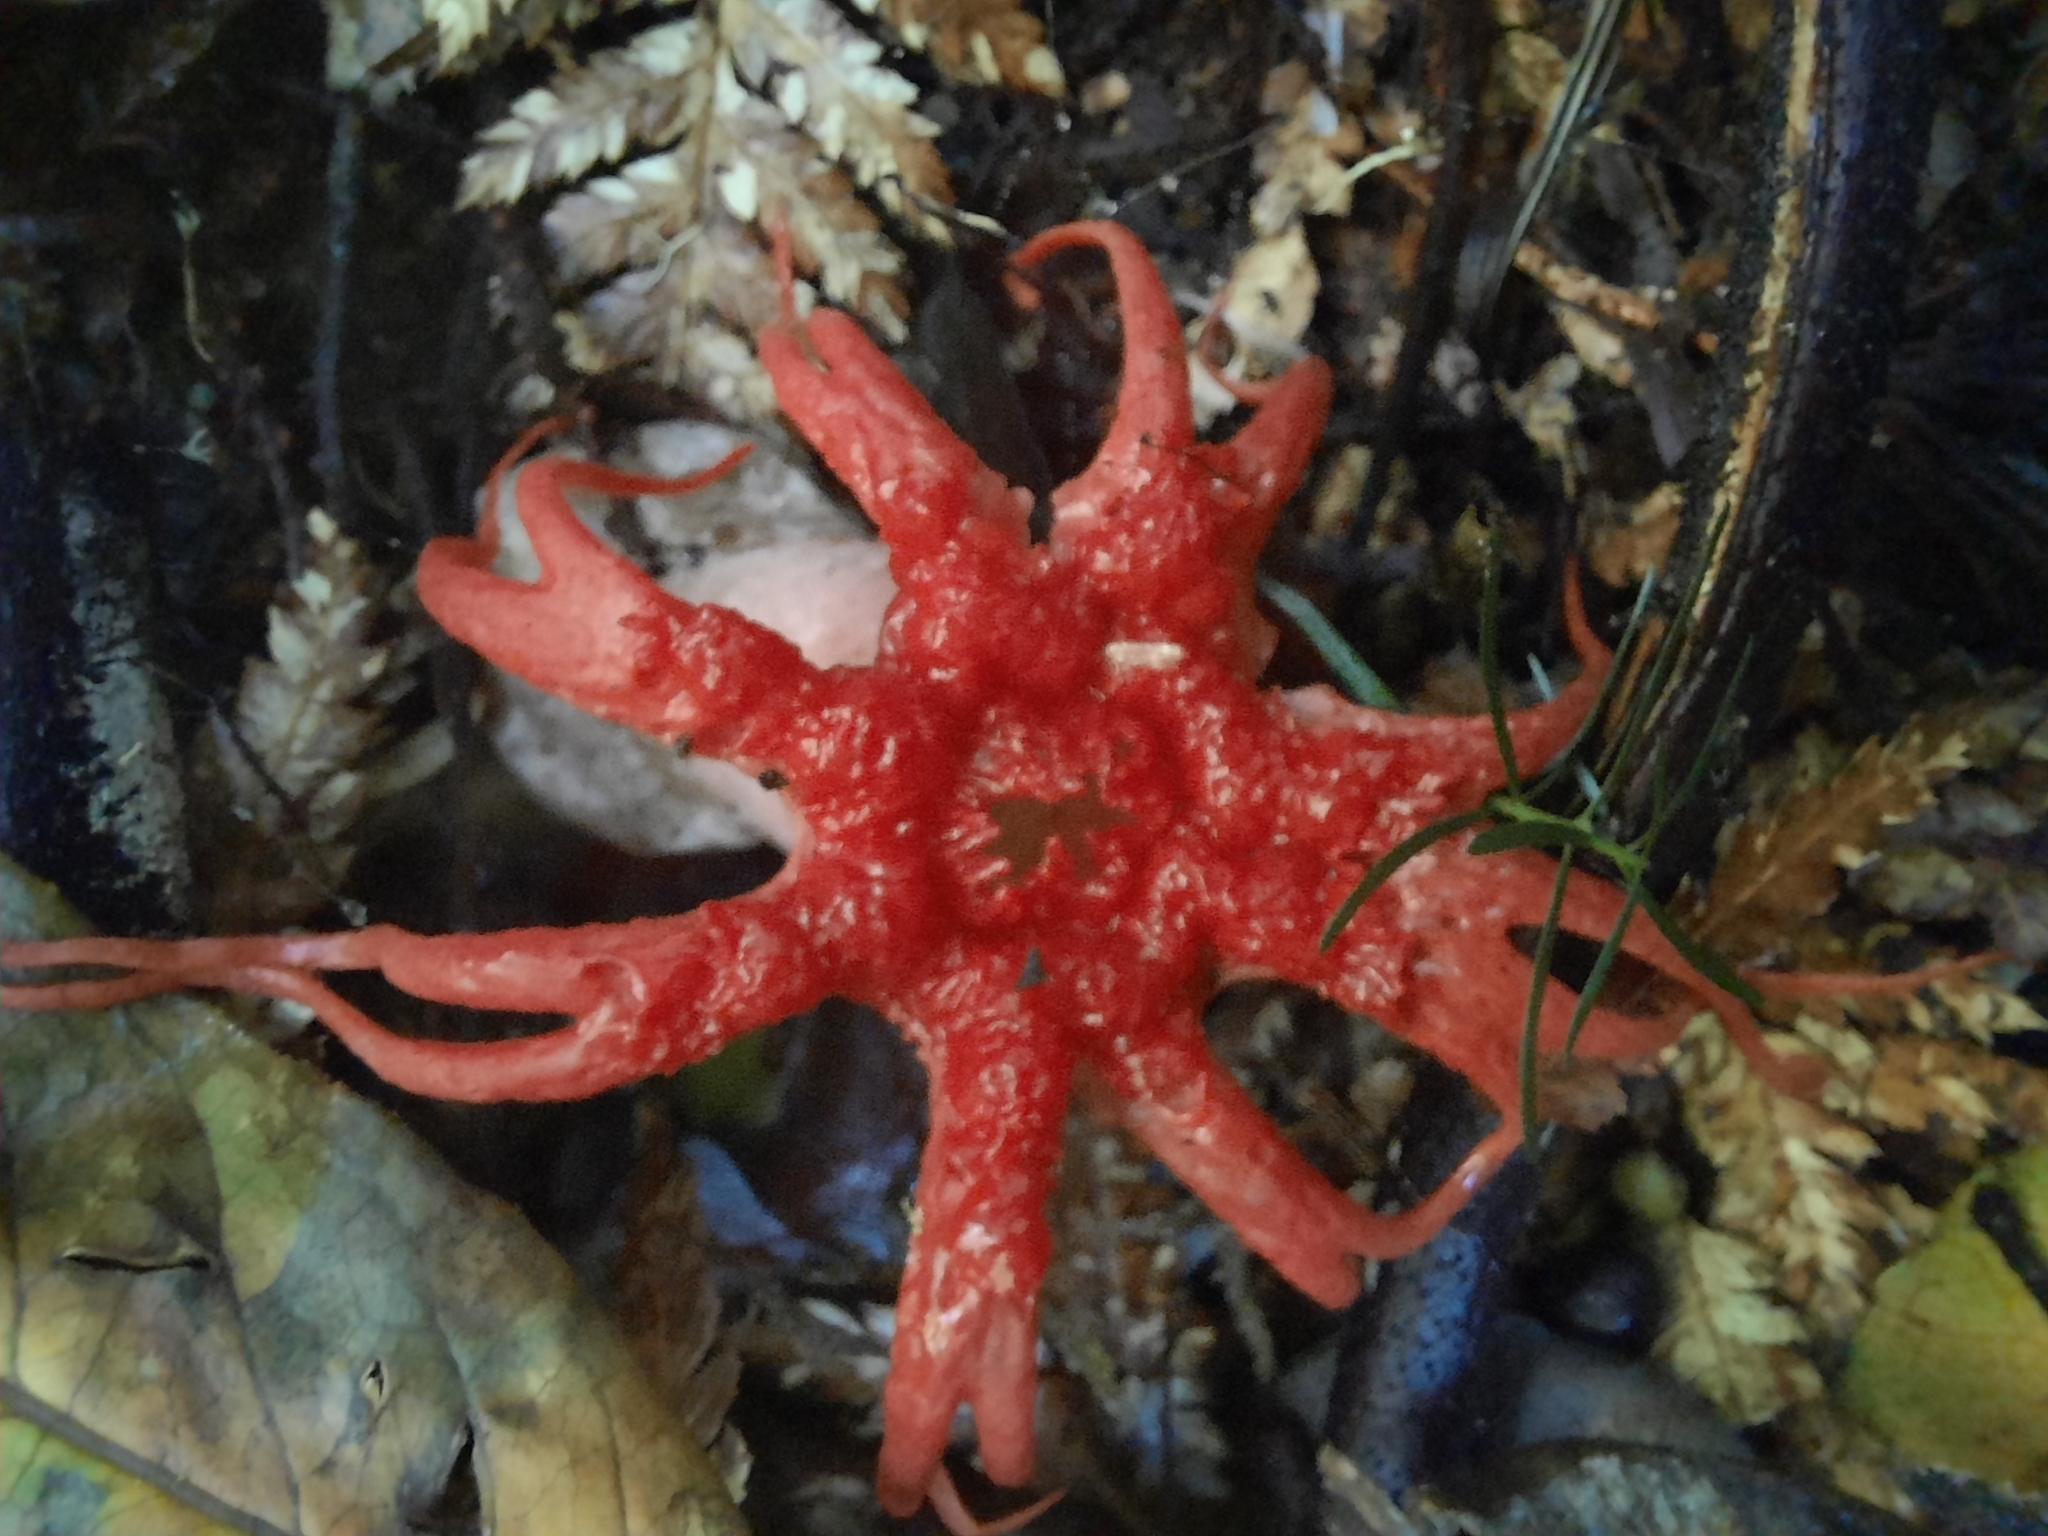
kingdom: Fungi
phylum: Basidiomycota
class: Agaricomycetes
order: Phallales
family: Phallaceae
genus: Aseroe
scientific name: Aseroe rubra
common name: Starfish fungus
